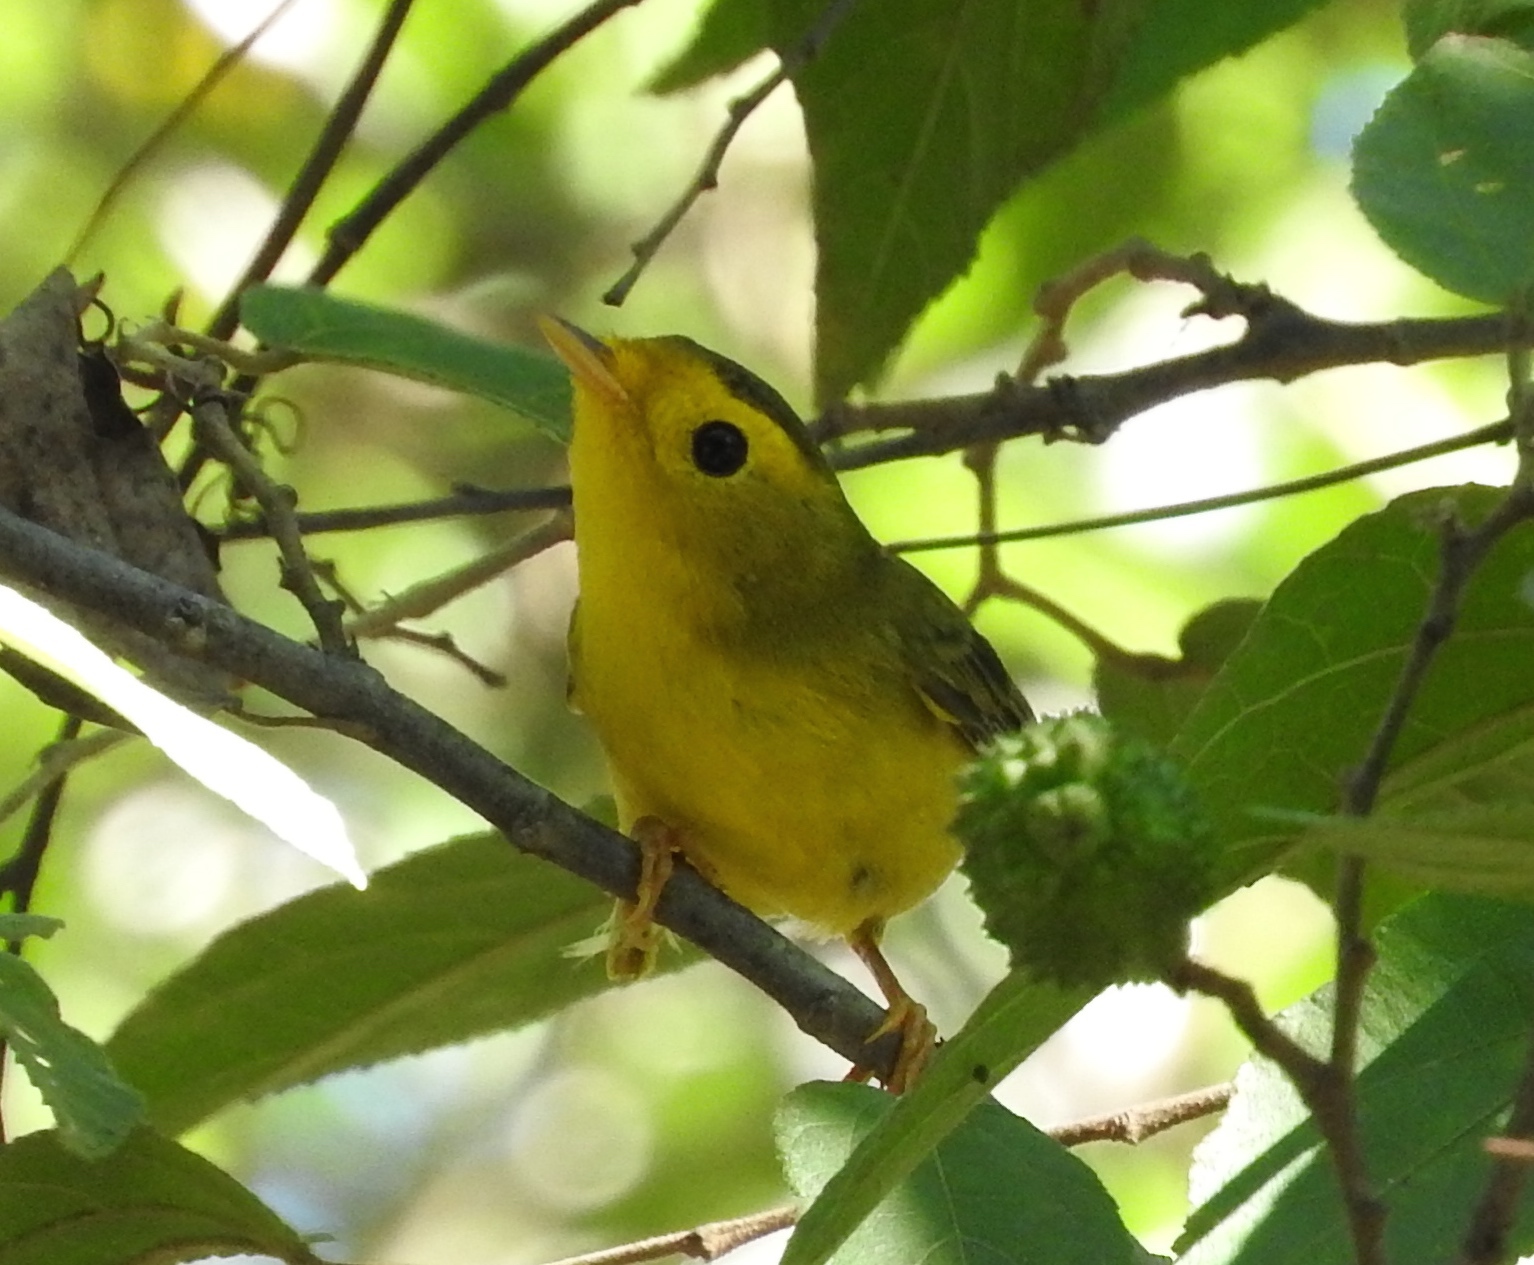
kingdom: Animalia
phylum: Chordata
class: Aves
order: Passeriformes
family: Parulidae
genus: Cardellina
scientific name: Cardellina pusilla
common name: Wilson's warbler
